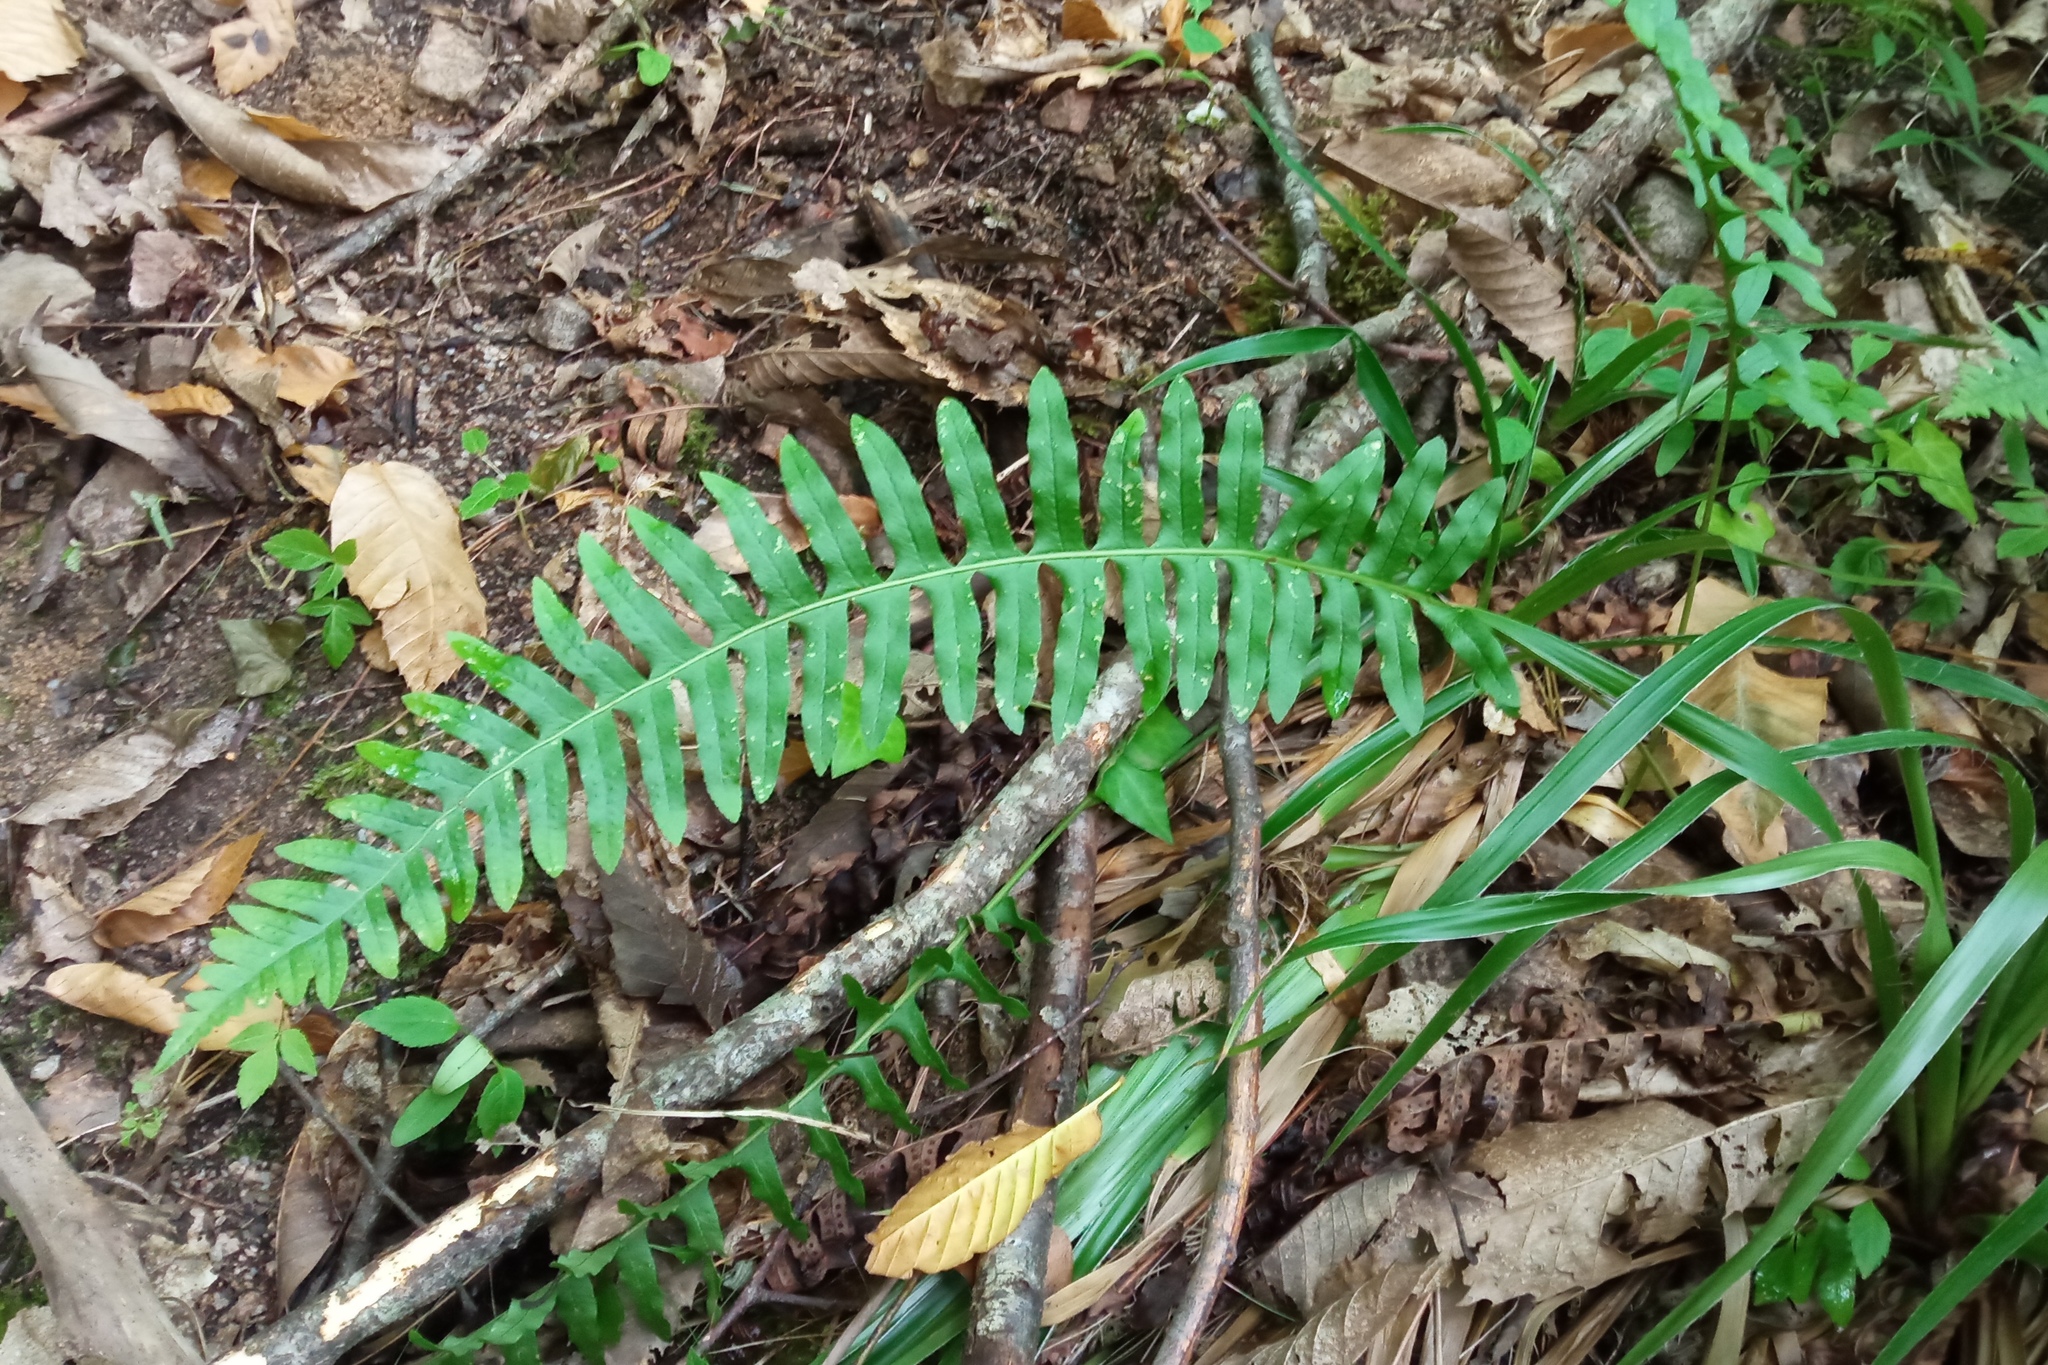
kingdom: Plantae
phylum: Tracheophyta
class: Polypodiopsida
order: Polypodiales
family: Polypodiaceae
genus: Polypodium
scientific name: Polypodium vulgare
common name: Common polypody
